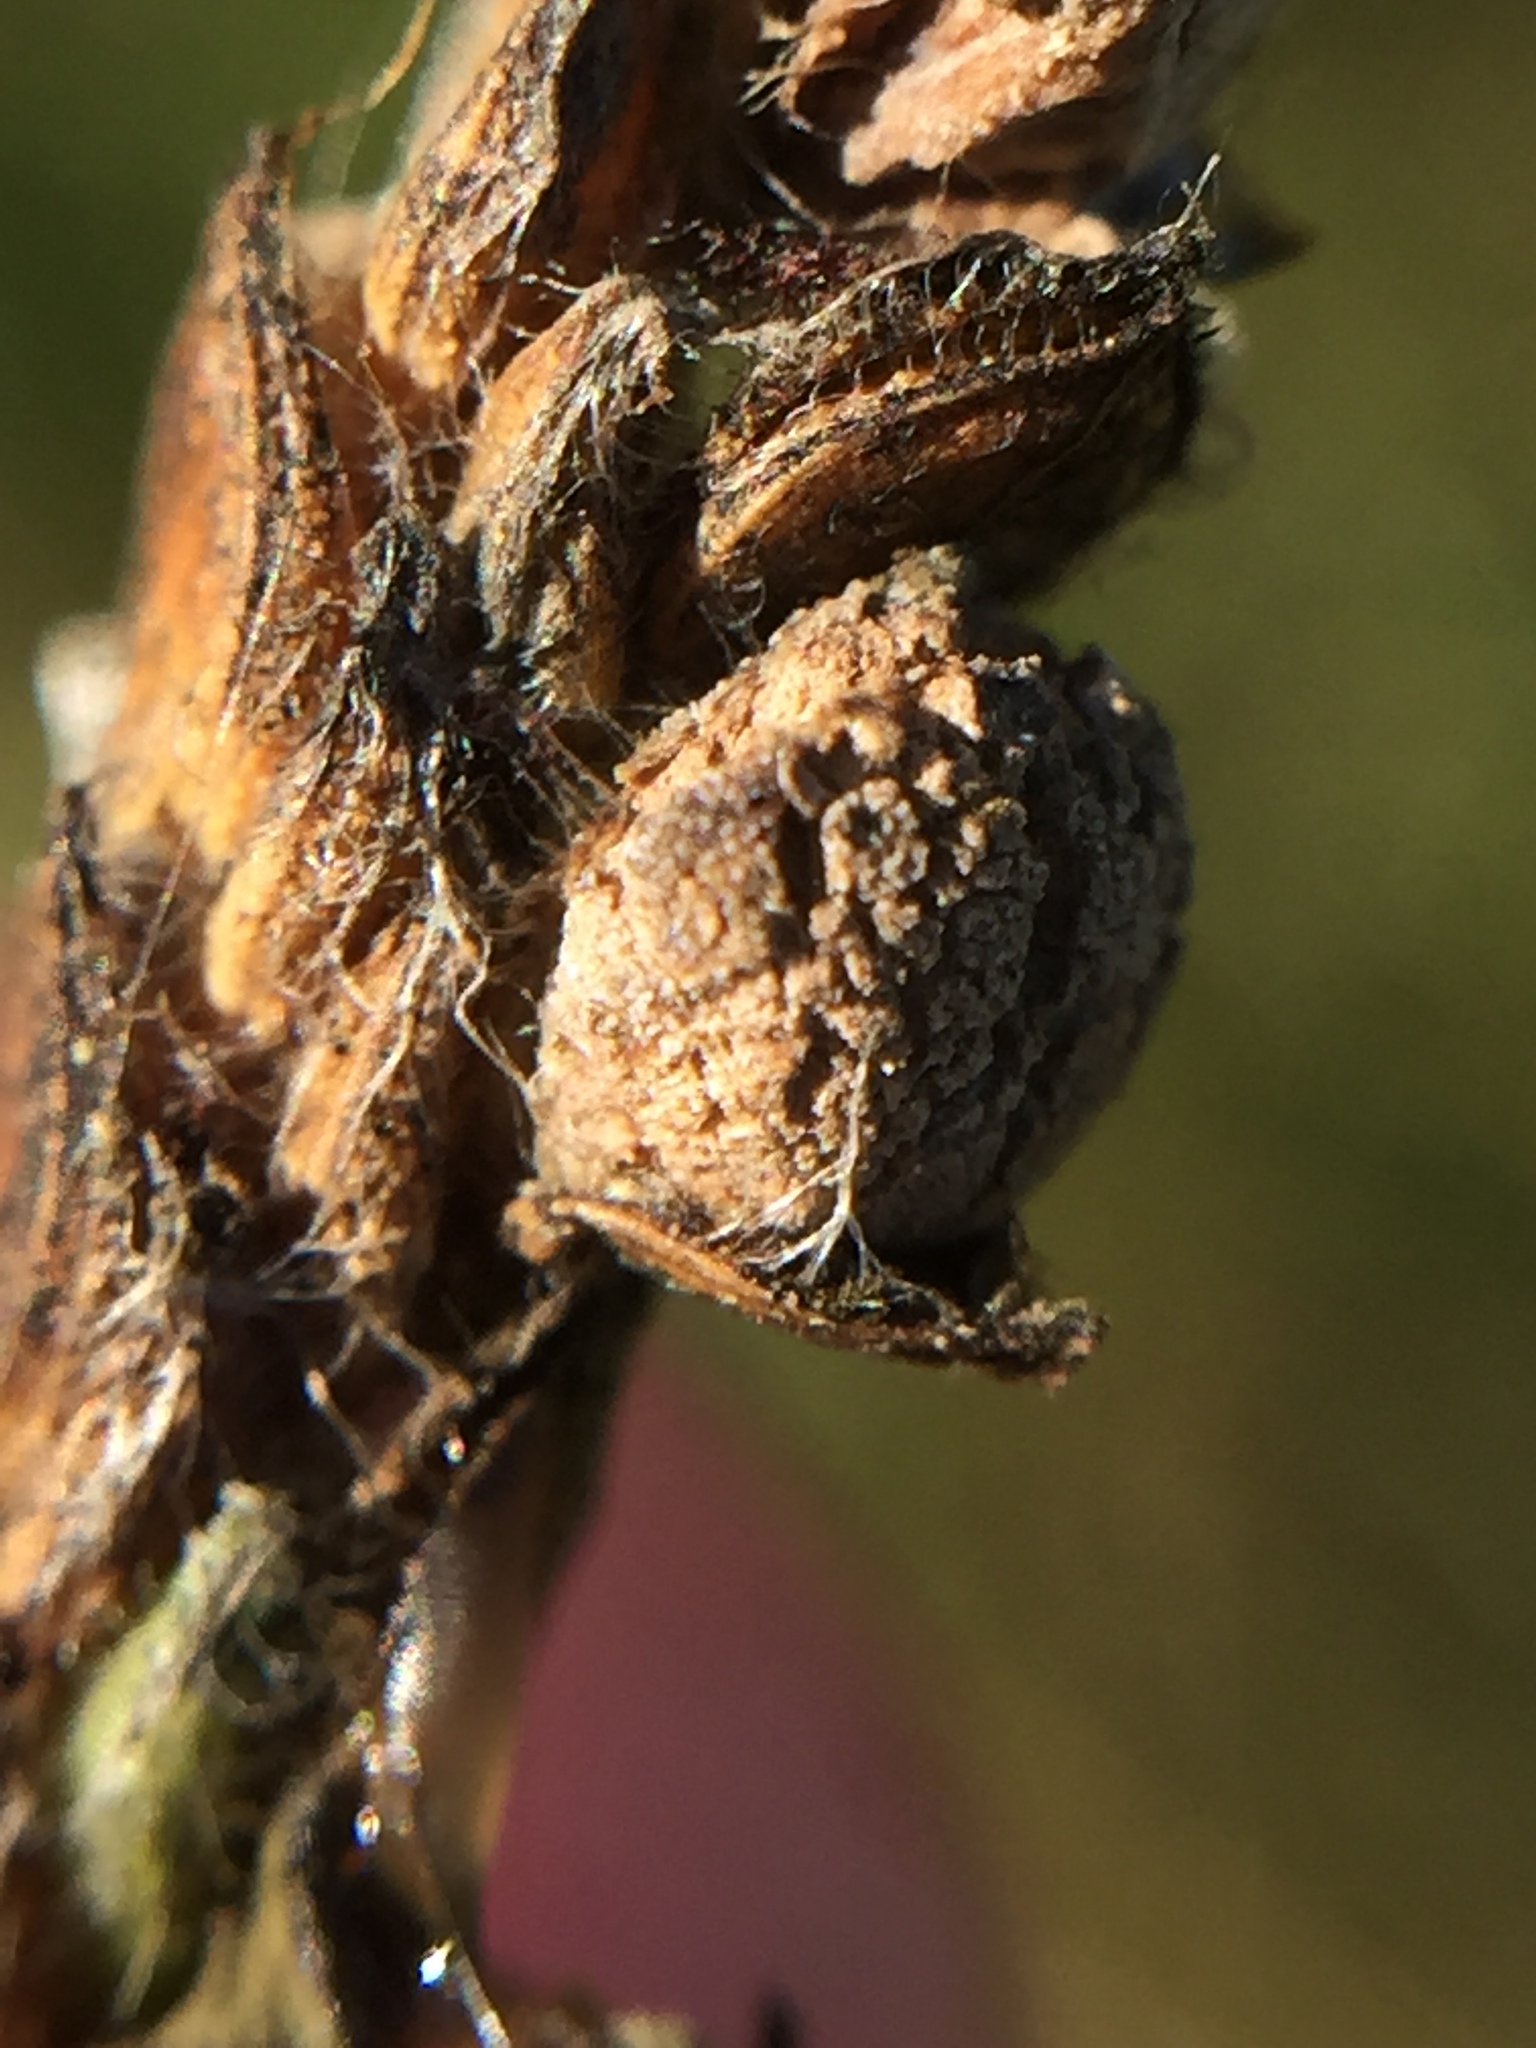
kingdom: Fungi
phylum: Ascomycota
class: Sordariomycetes
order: Hypocreales
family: Clavicipitaceae
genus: Claviceps
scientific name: Claviceps paspali
